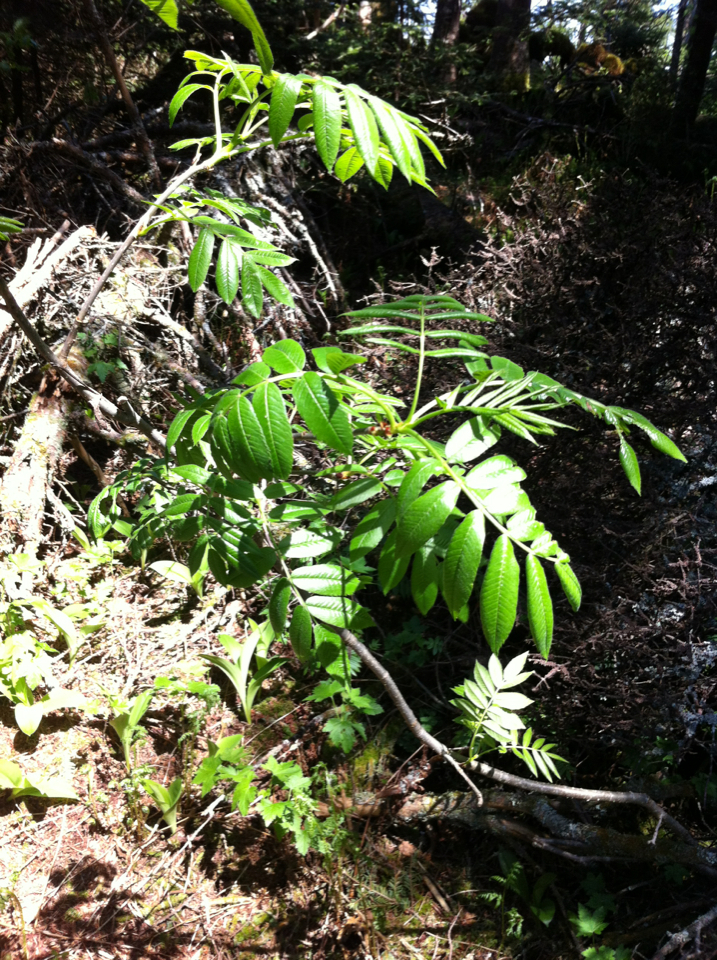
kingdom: Plantae
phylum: Tracheophyta
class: Magnoliopsida
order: Rosales
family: Rosaceae
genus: Sorbus
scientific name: Sorbus americana
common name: American mountain-ash
